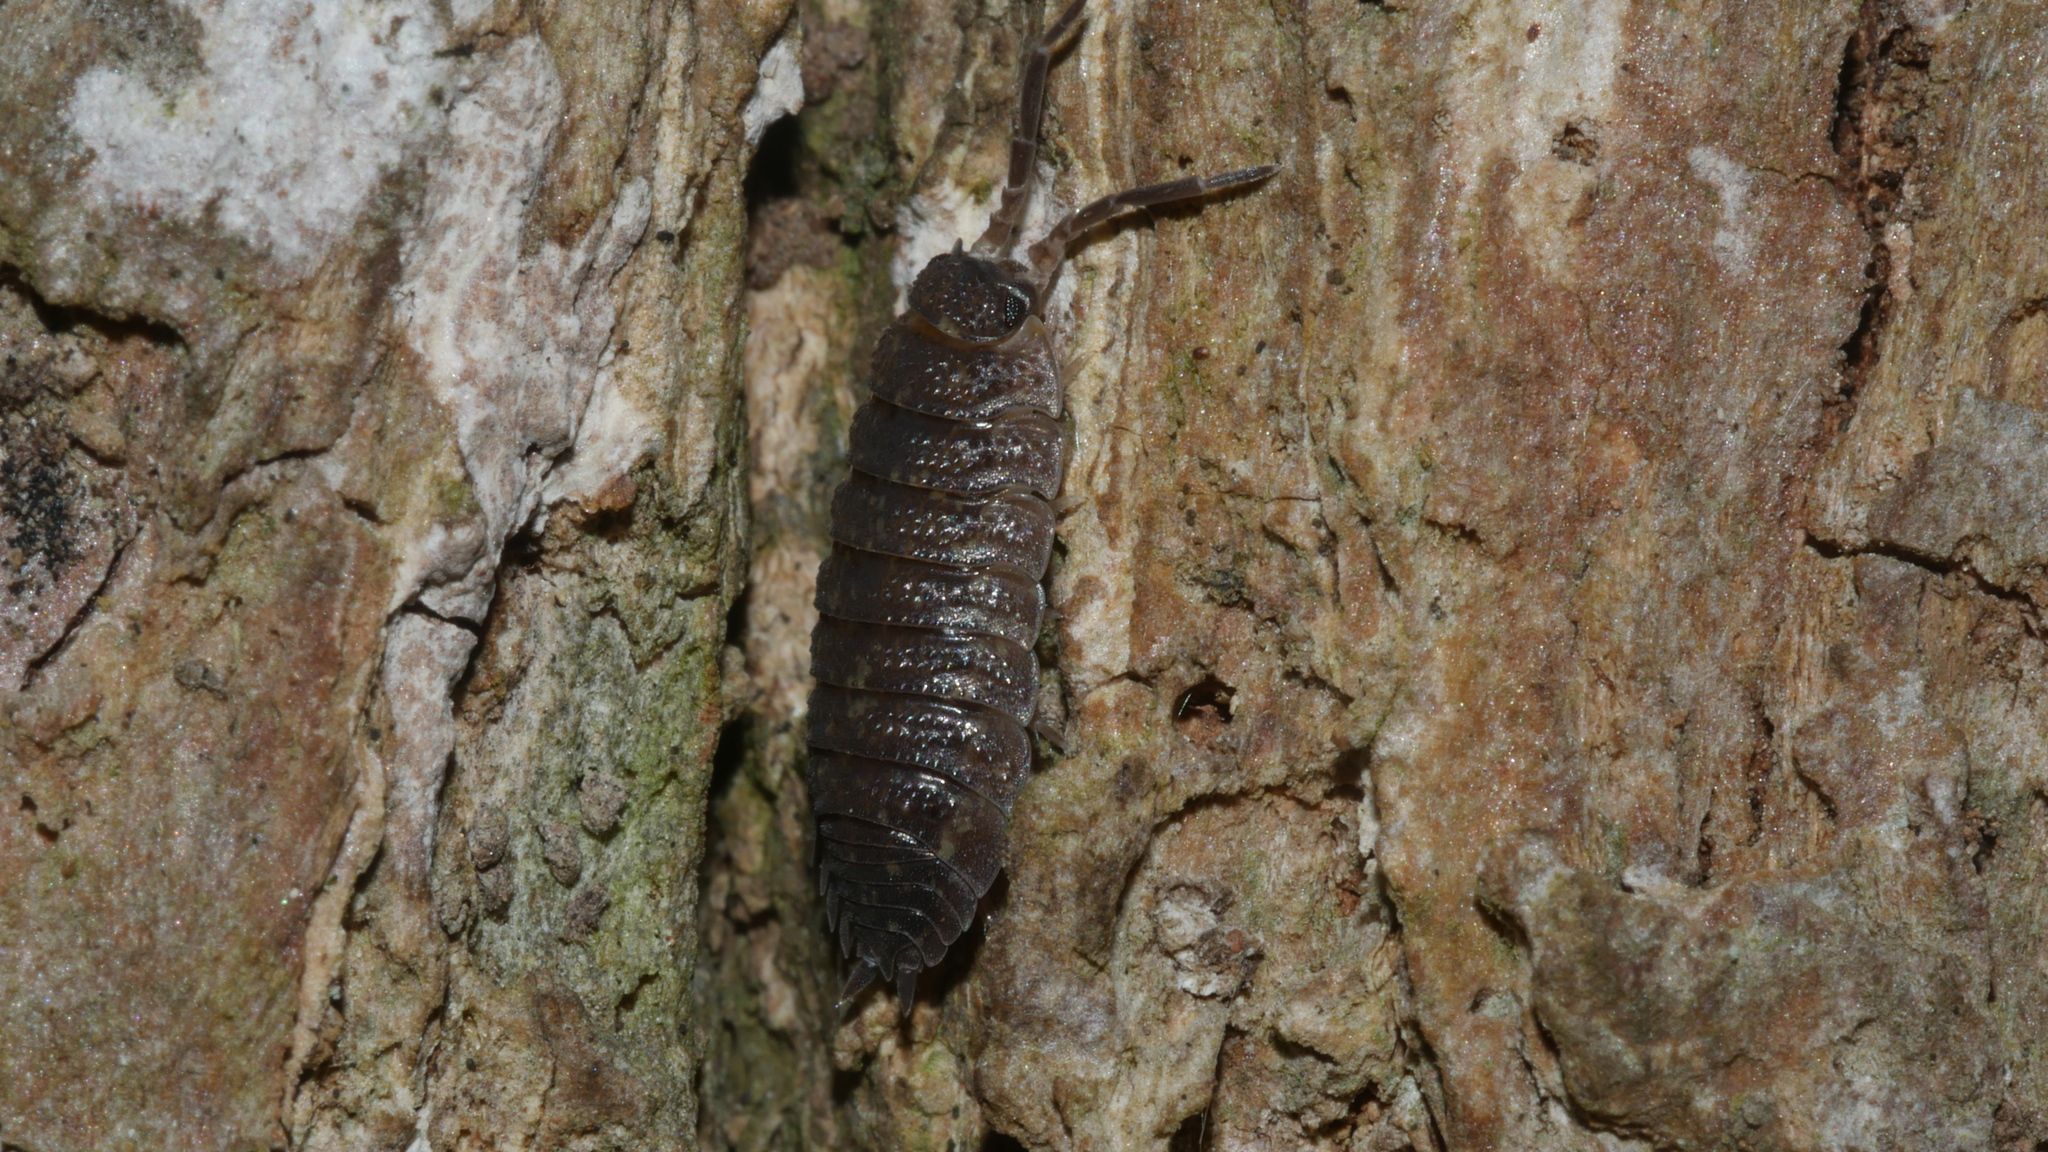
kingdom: Animalia
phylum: Arthropoda
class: Malacostraca
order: Isopoda
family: Porcellionidae
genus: Porcellio
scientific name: Porcellio scaber
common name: Common rough woodlouse
